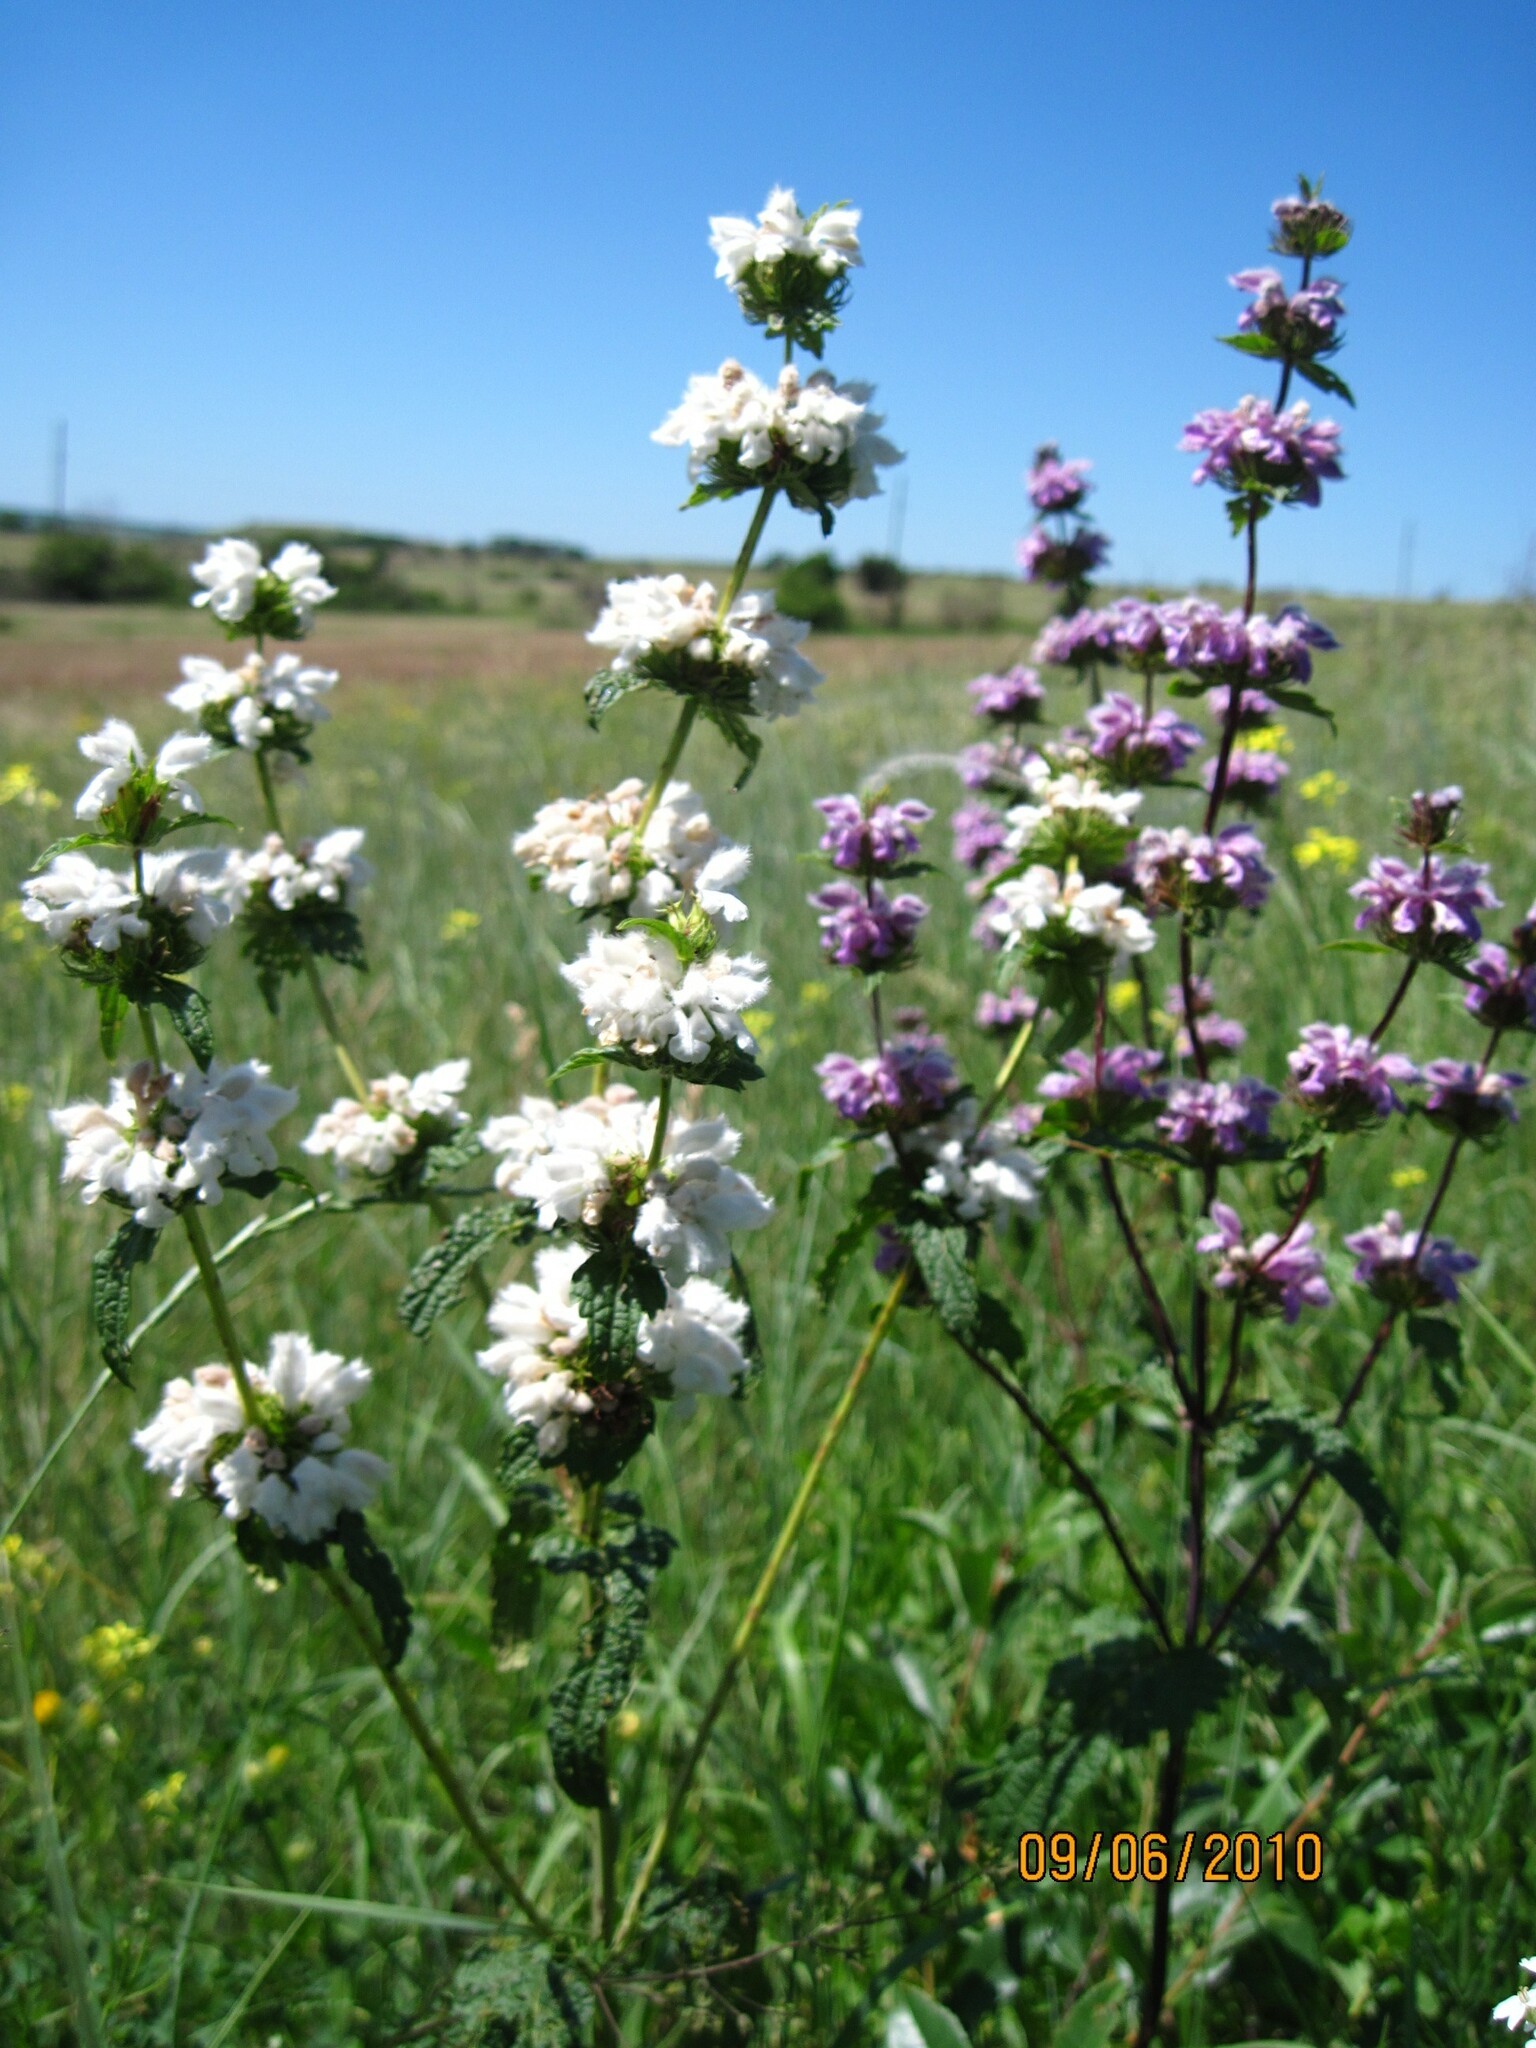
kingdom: Plantae
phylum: Tracheophyta
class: Magnoliopsida
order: Lamiales
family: Lamiaceae
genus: Phlomoides
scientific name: Phlomoides tuberosa
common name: Tuberous jerusalem sage
